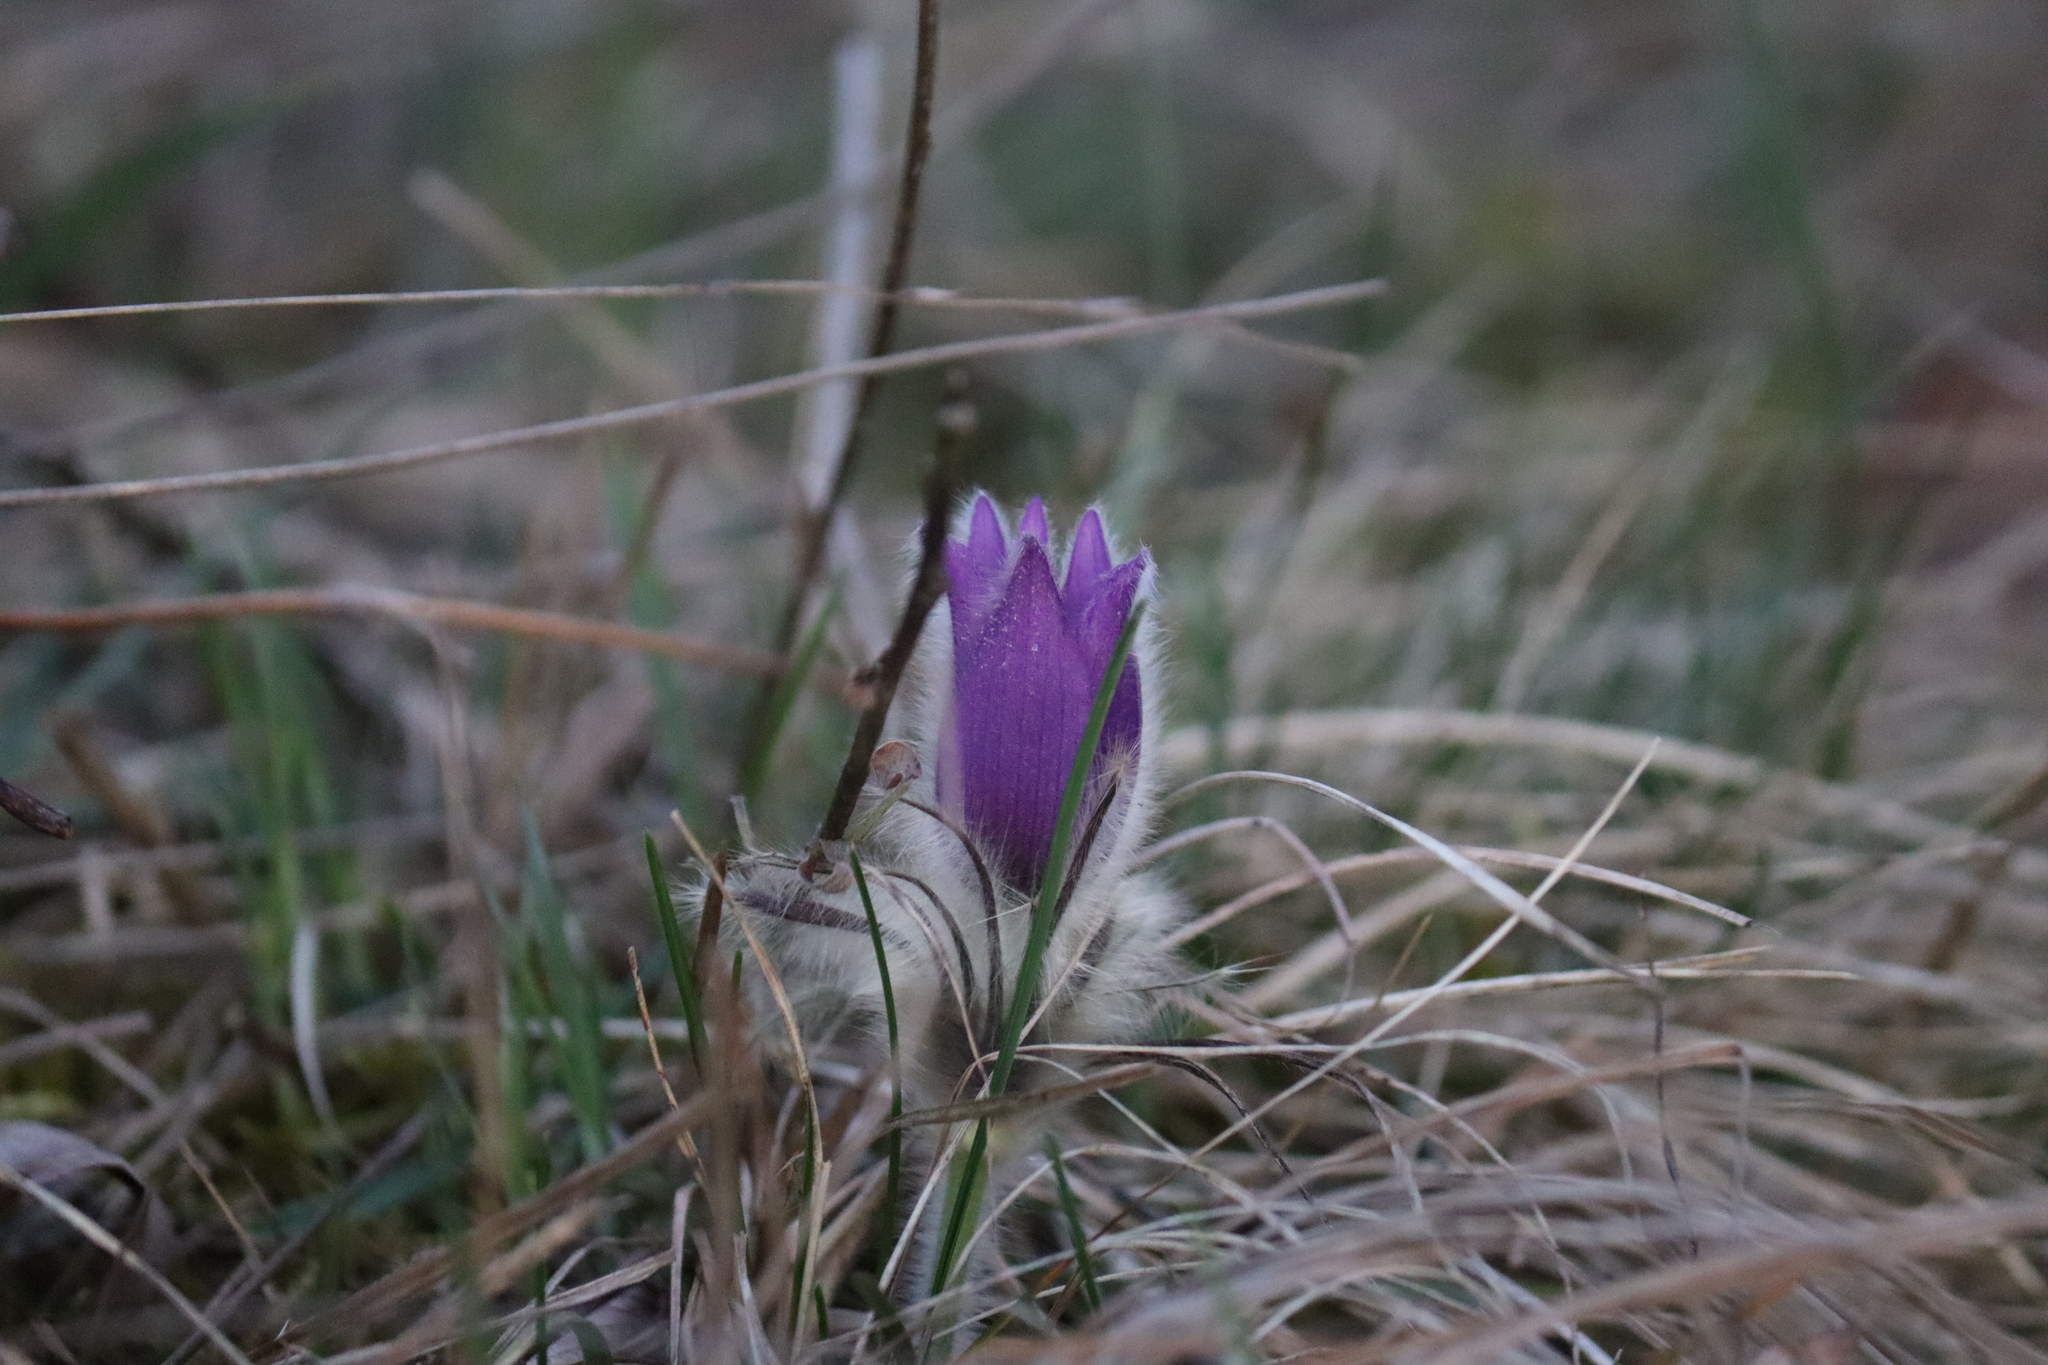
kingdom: Plantae
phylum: Tracheophyta
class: Magnoliopsida
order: Ranunculales
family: Ranunculaceae
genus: Pulsatilla
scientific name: Pulsatilla grandis
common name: Greater pasque flower
